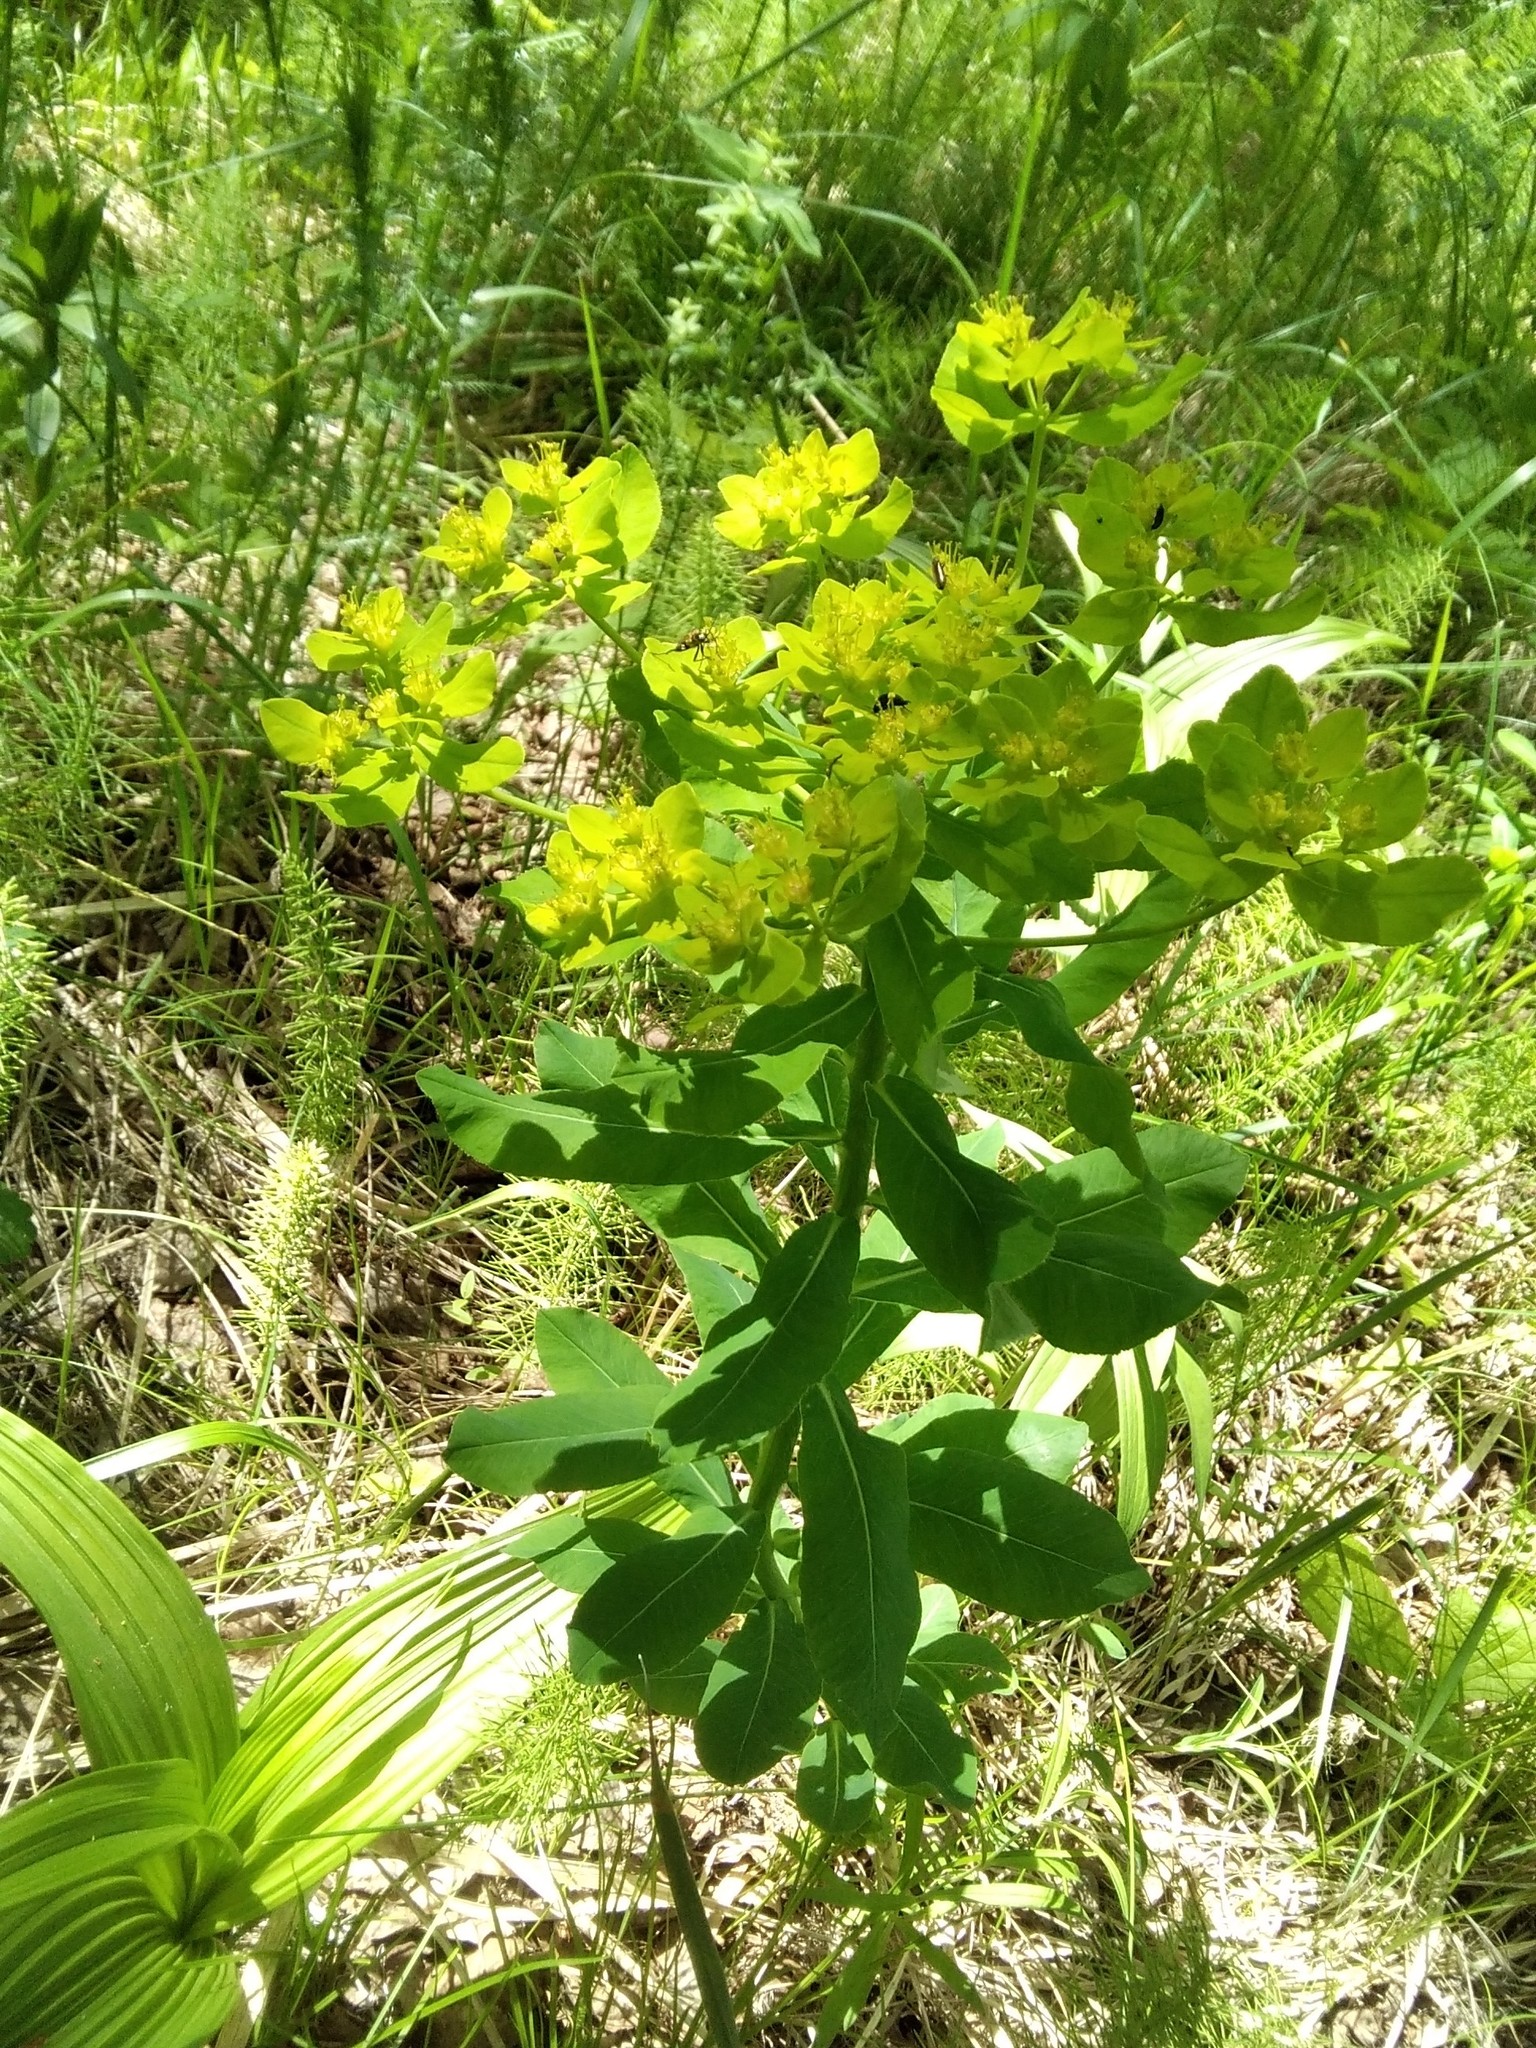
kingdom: Plantae
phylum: Tracheophyta
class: Magnoliopsida
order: Malpighiales
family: Euphorbiaceae
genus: Euphorbia
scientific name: Euphorbia pilosa
